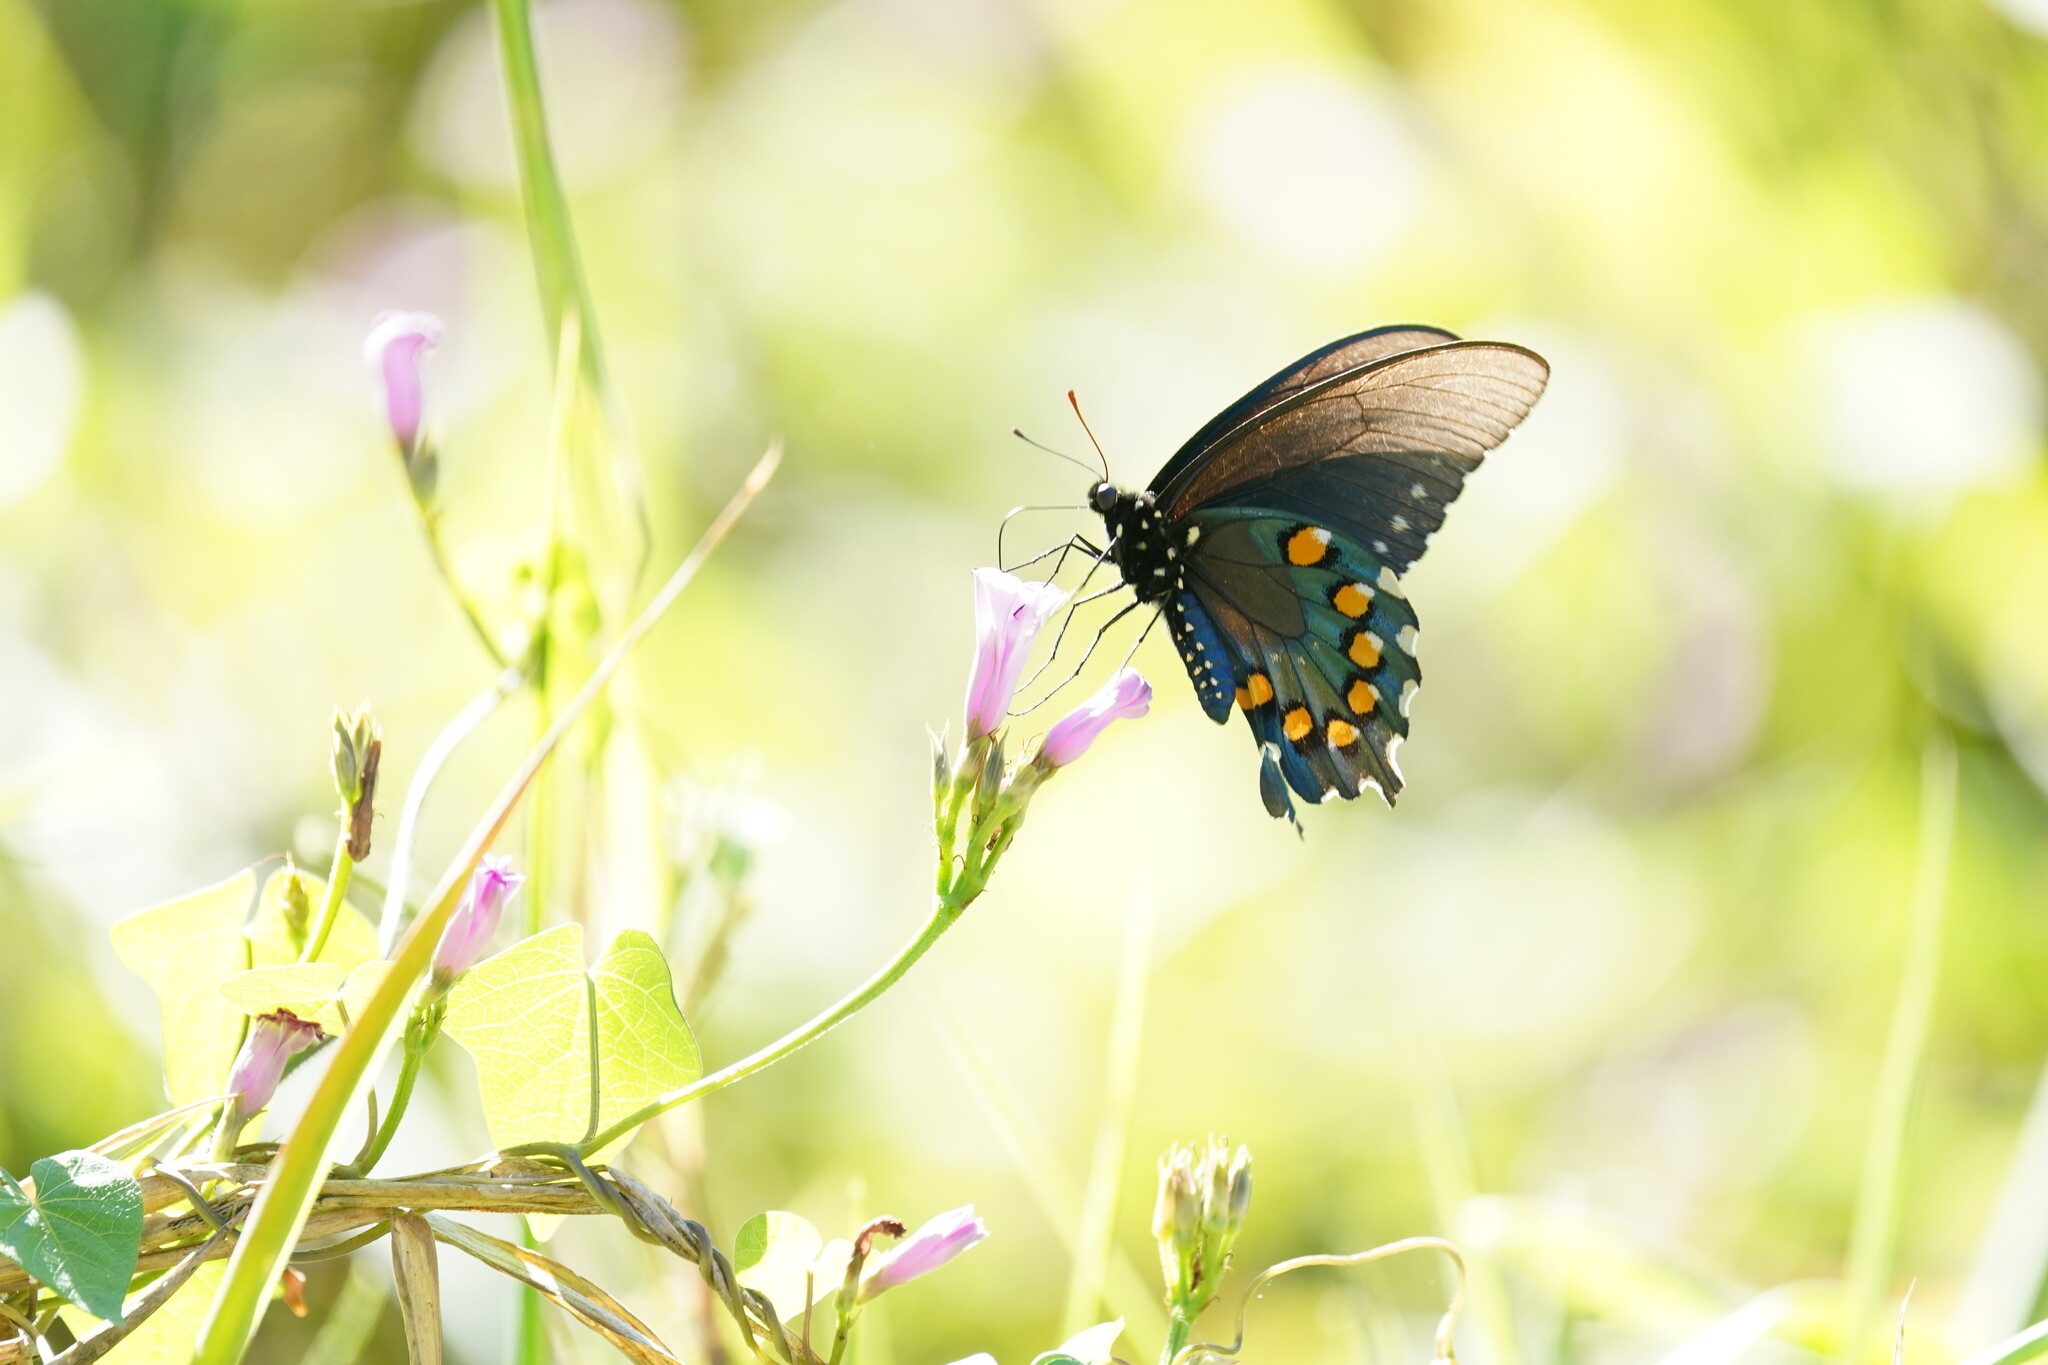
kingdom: Animalia
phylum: Arthropoda
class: Insecta
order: Lepidoptera
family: Papilionidae
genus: Battus
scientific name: Battus philenor
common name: Pipevine swallowtail
